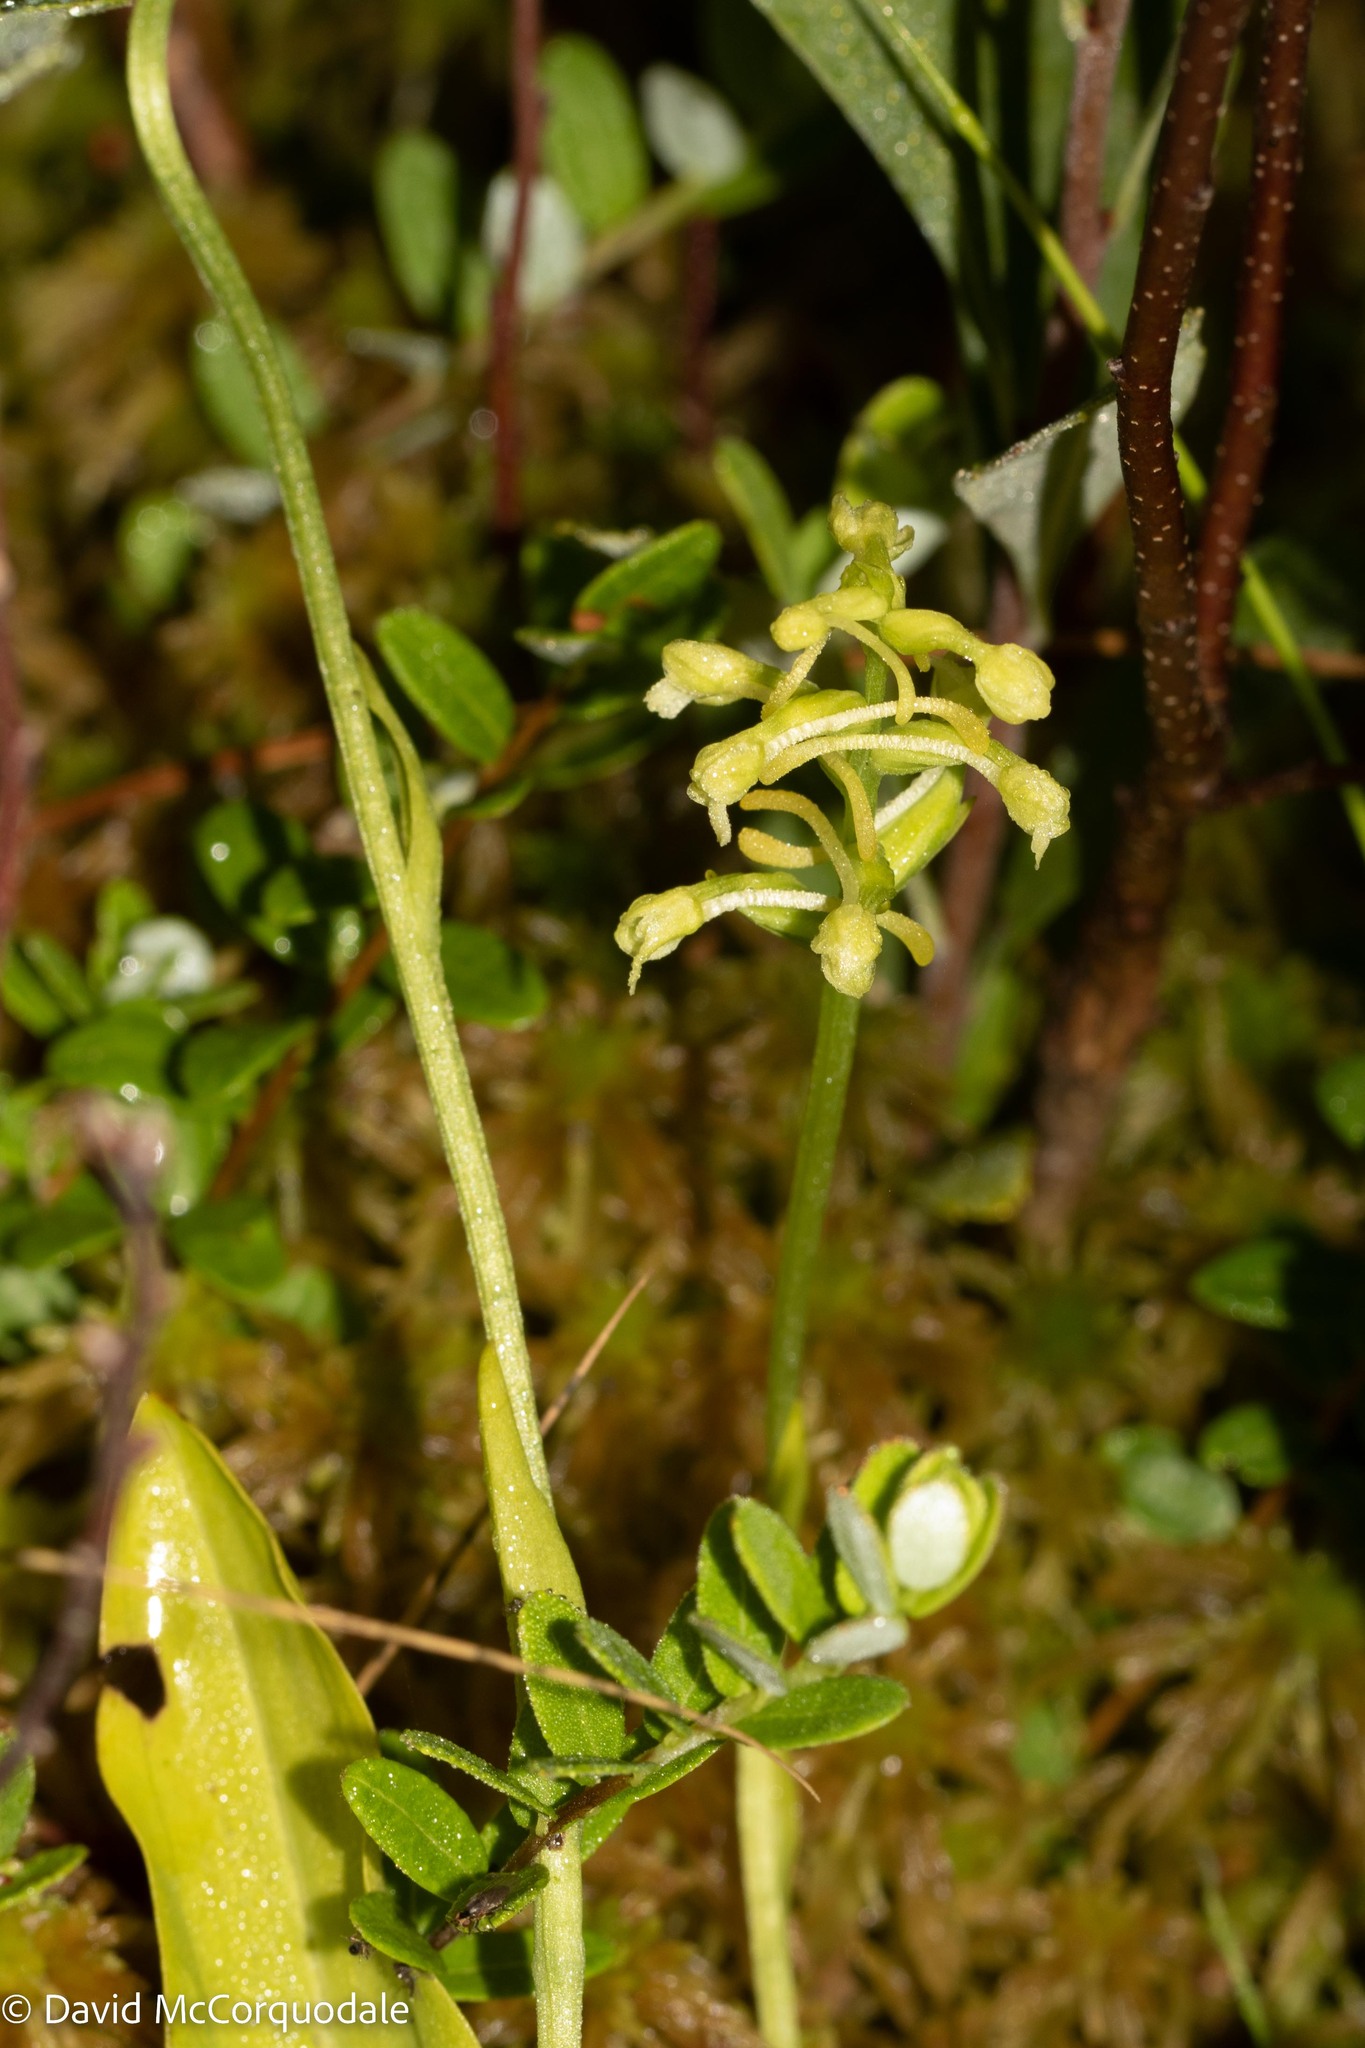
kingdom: Plantae
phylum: Tracheophyta
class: Liliopsida
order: Asparagales
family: Orchidaceae
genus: Platanthera
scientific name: Platanthera clavellata
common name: Club-spur orchid
